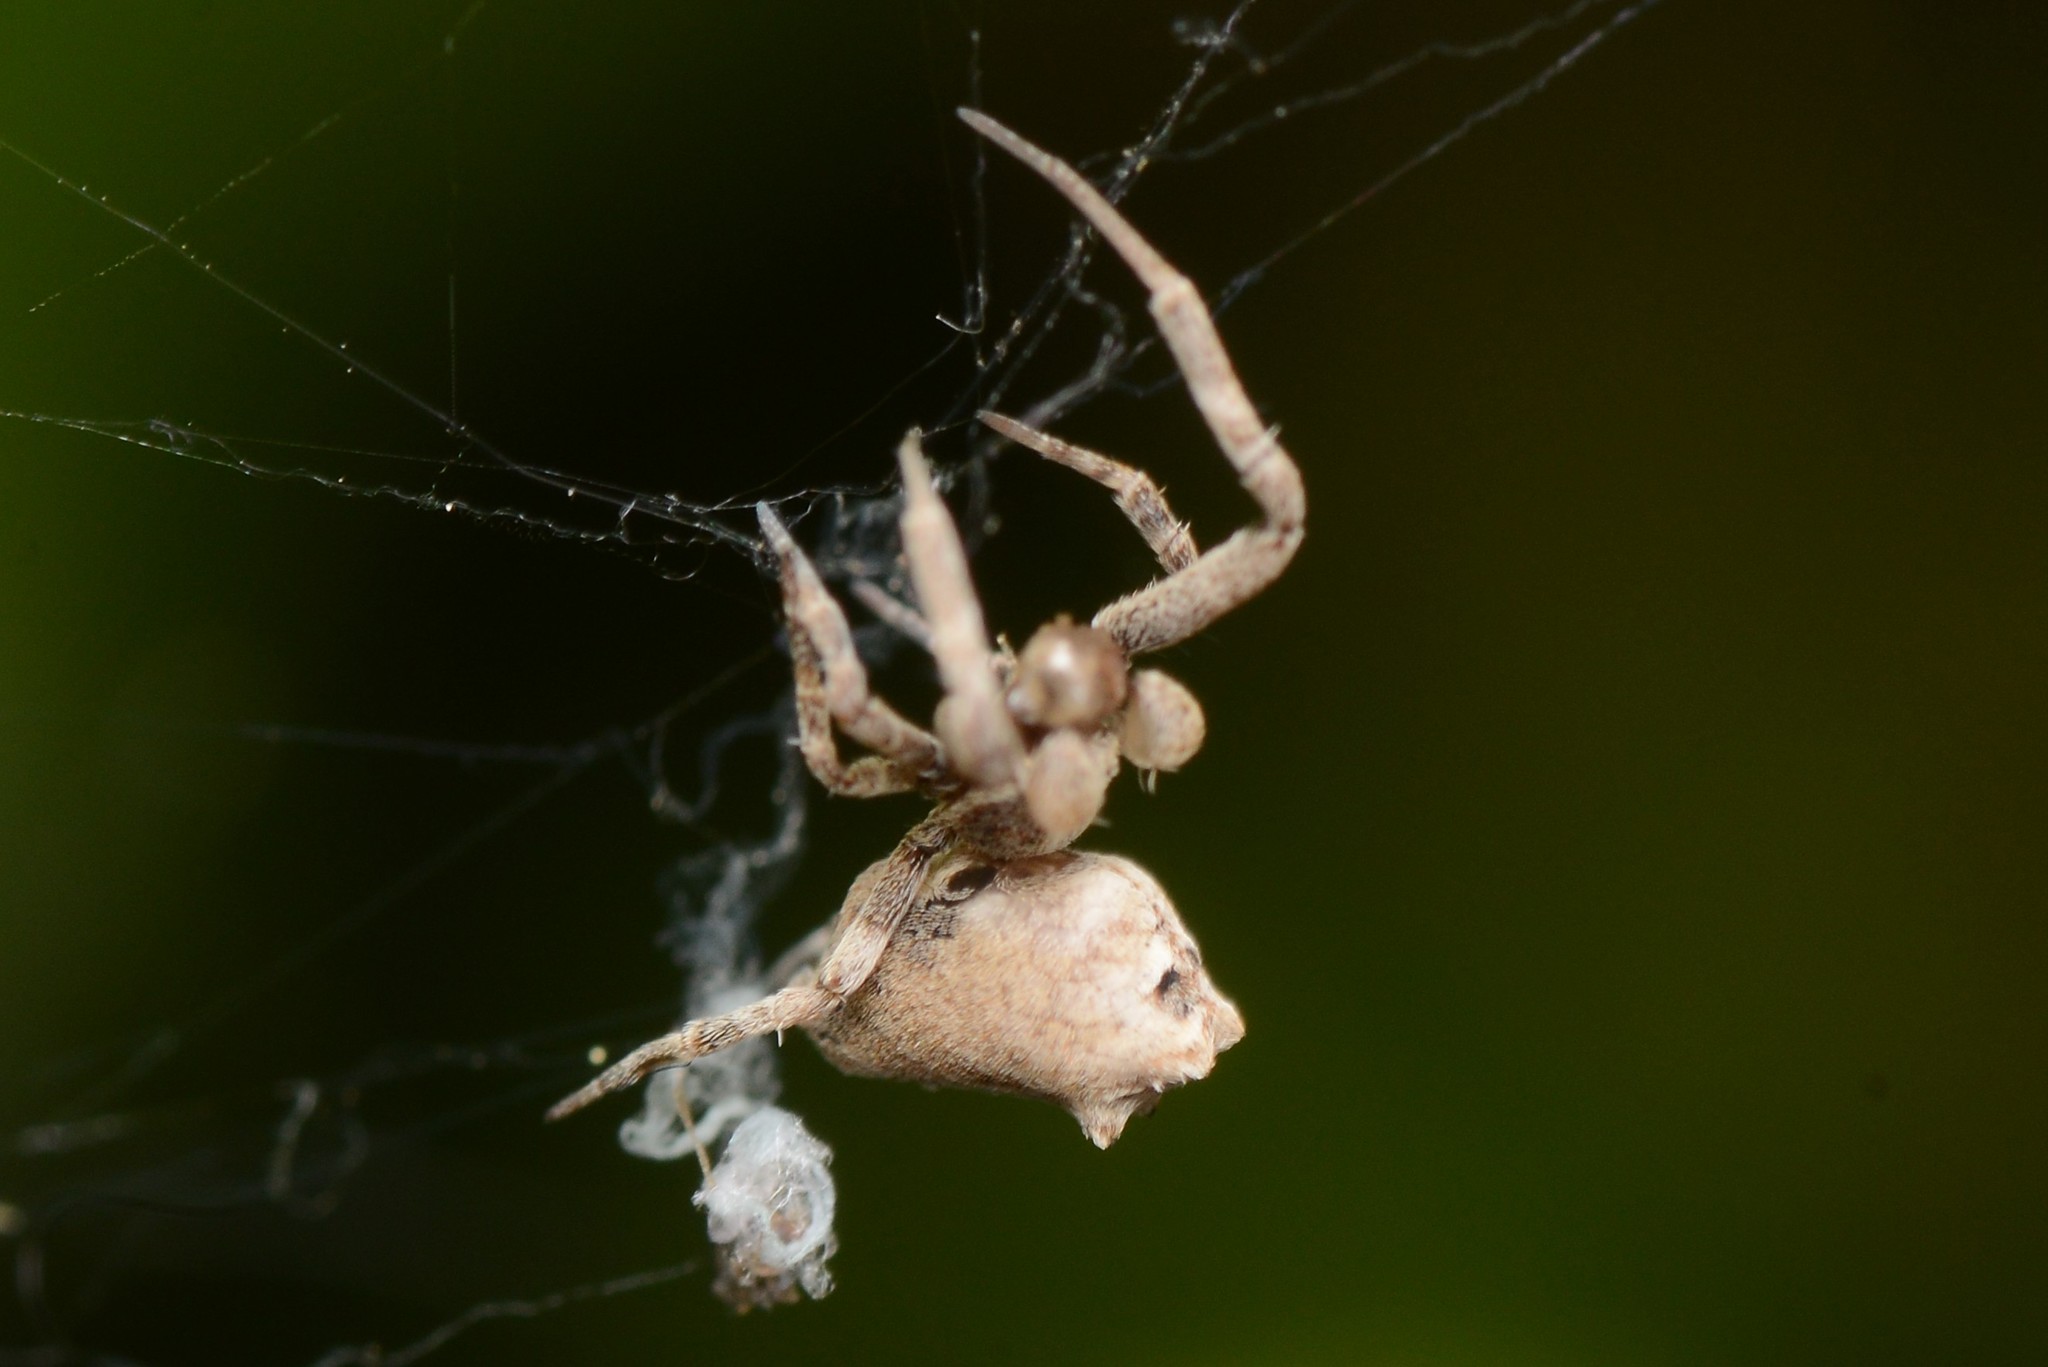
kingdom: Animalia
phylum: Arthropoda
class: Arachnida
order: Araneae
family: Uloboridae
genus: Philoponella
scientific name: Philoponella congregabilis
